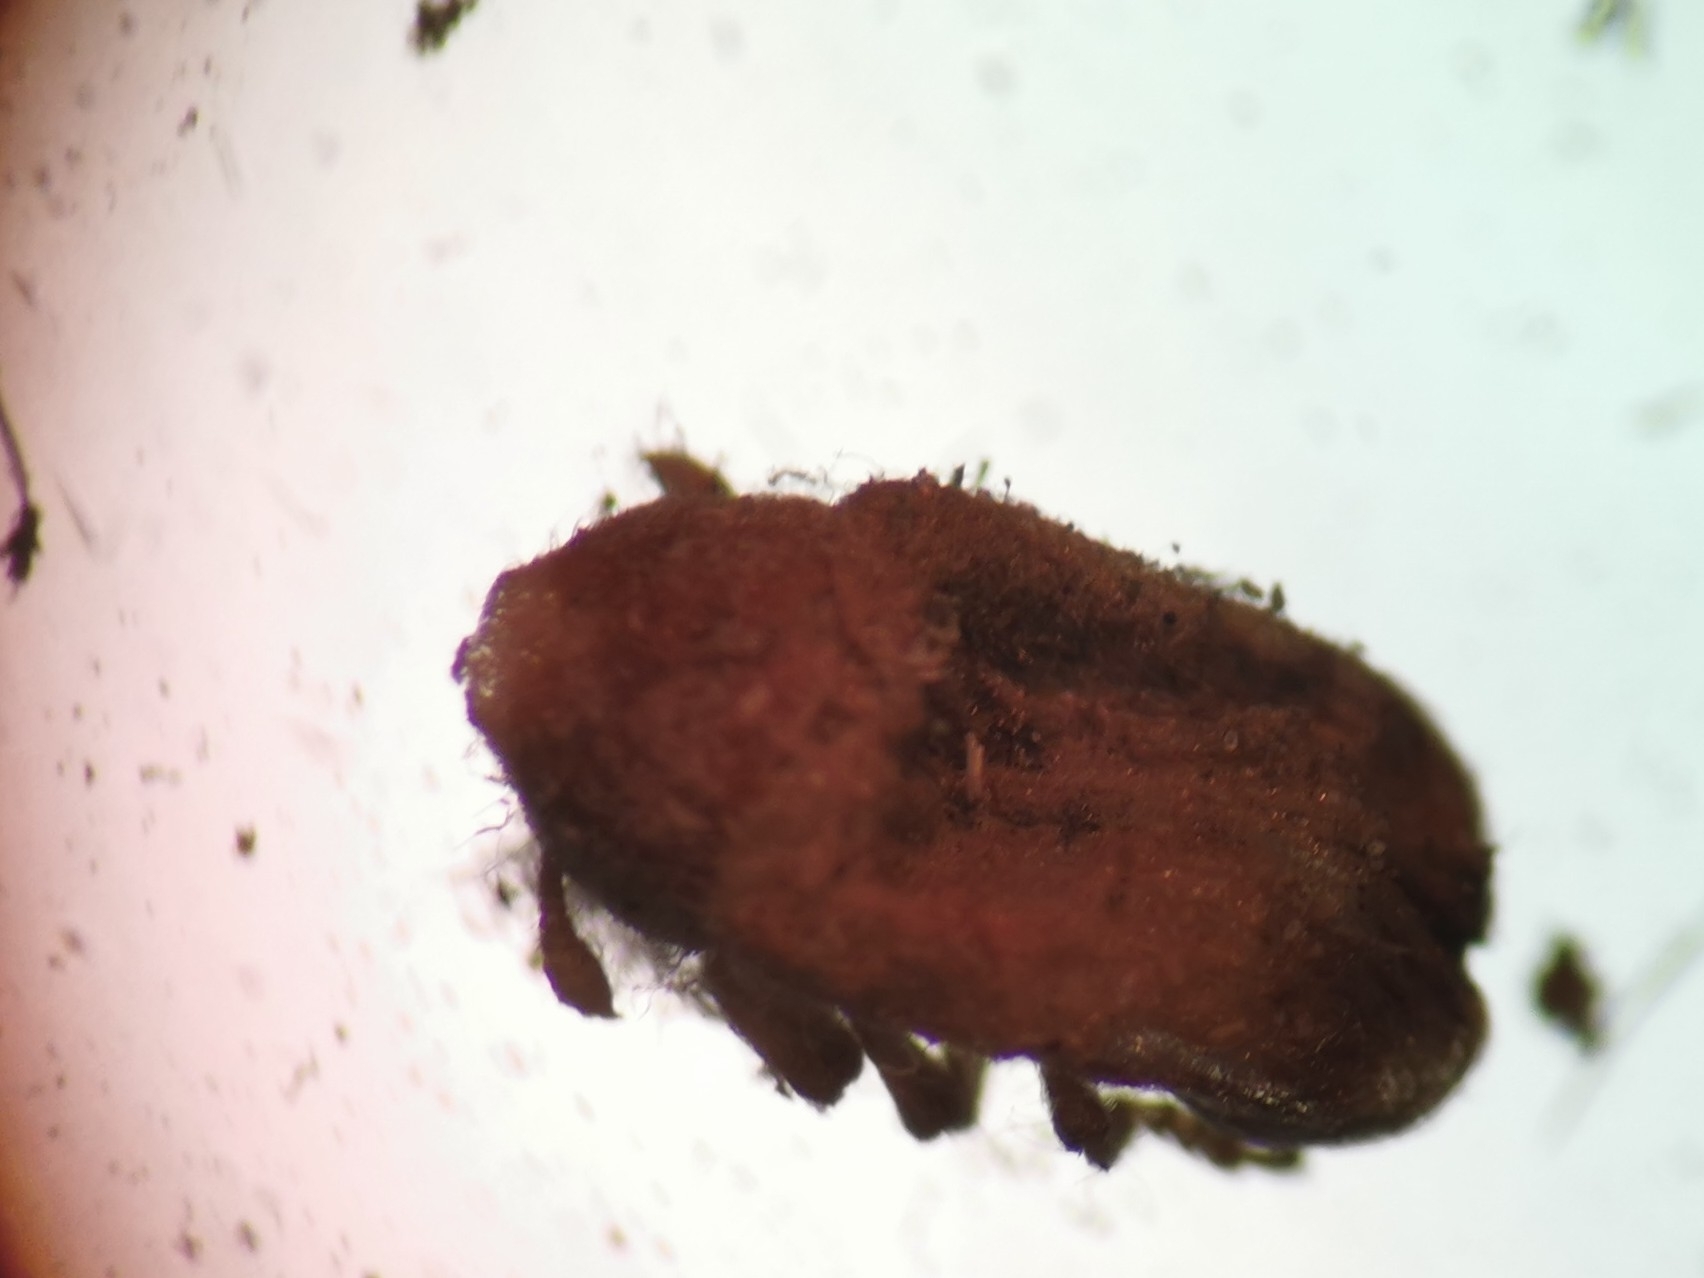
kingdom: Animalia
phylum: Arthropoda
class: Insecta
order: Coleoptera
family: Curculionidae
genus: Larinus
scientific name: Larinus minutus
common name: Weevil
